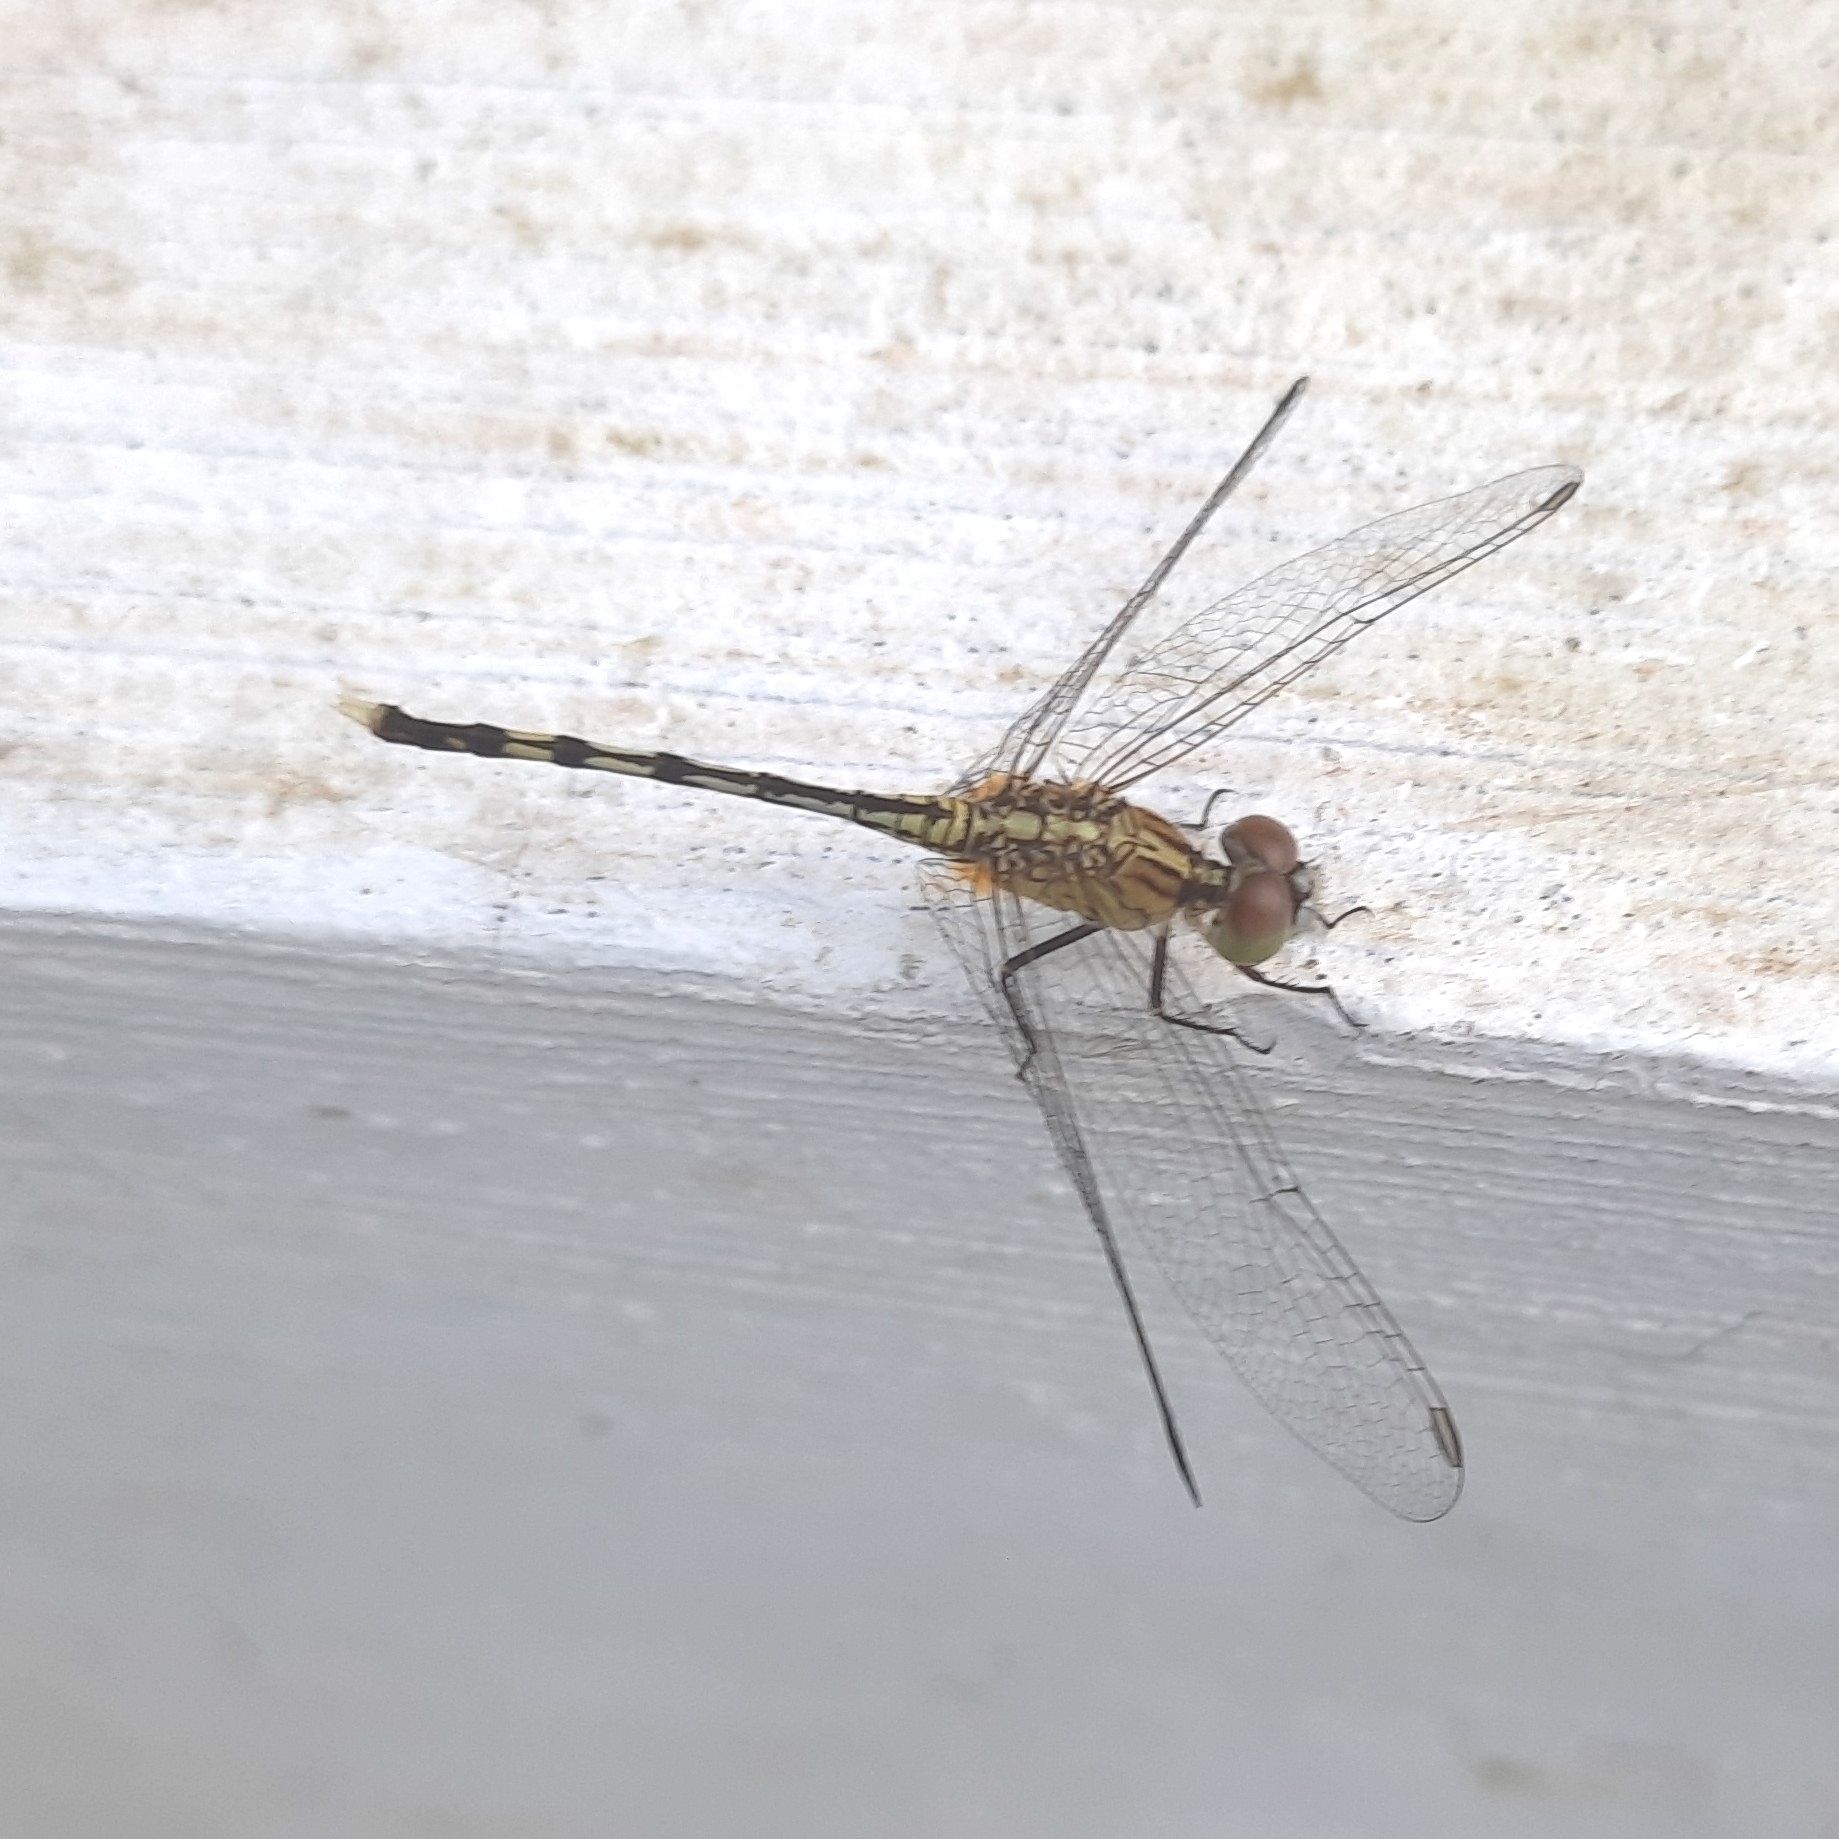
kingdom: Animalia
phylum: Arthropoda
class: Insecta
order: Odonata
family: Libellulidae
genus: Diplacodes
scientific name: Diplacodes trivialis
